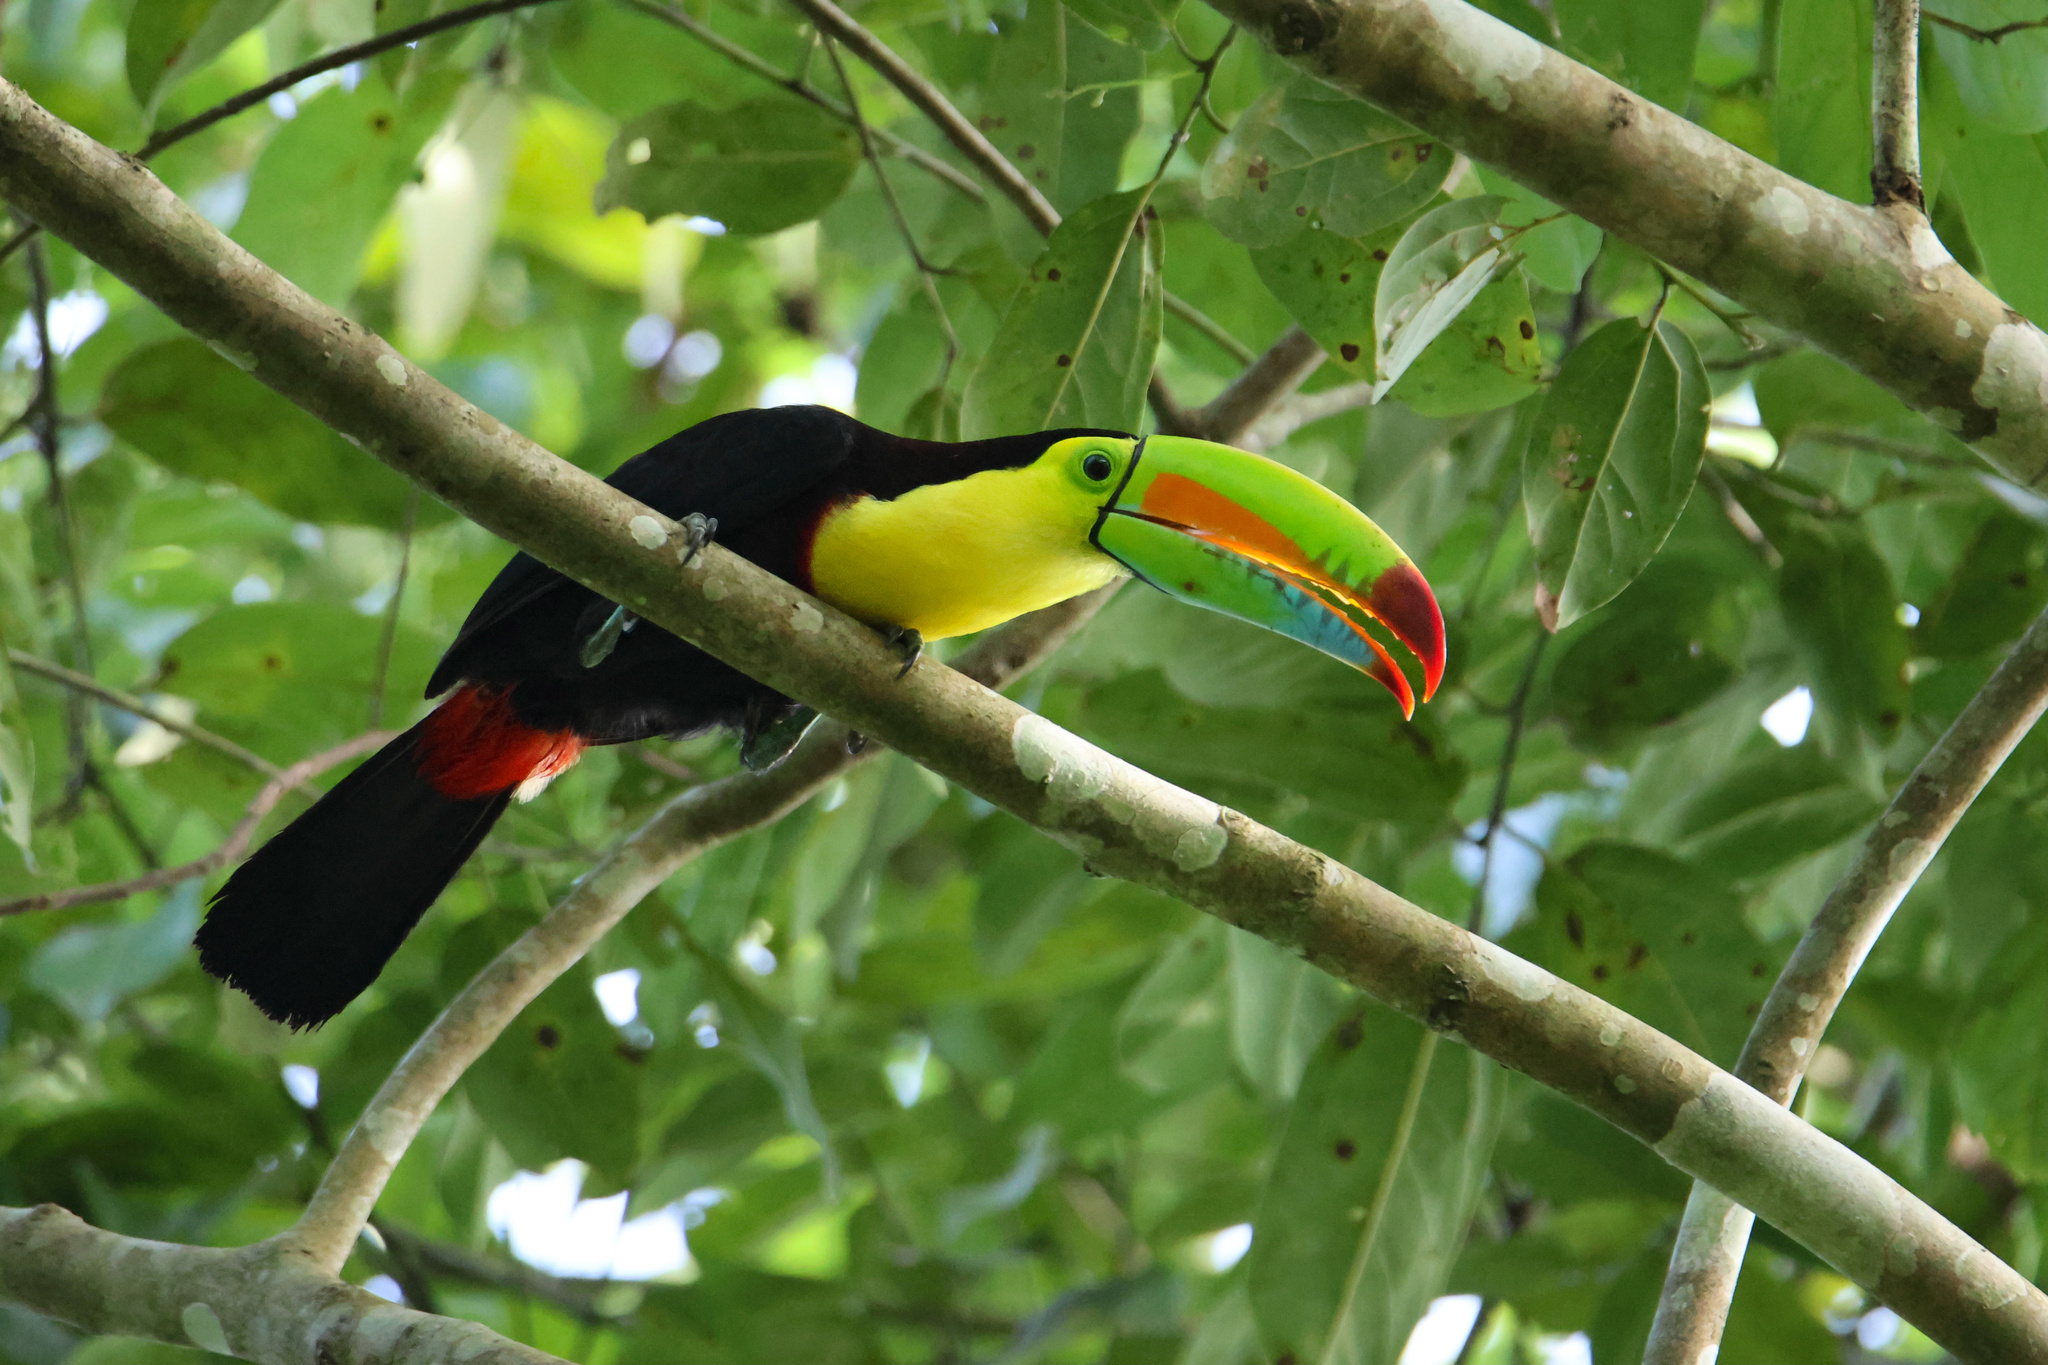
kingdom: Animalia
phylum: Chordata
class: Aves
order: Piciformes
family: Ramphastidae
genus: Ramphastos
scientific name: Ramphastos sulfuratus
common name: Keel-billed toucan
